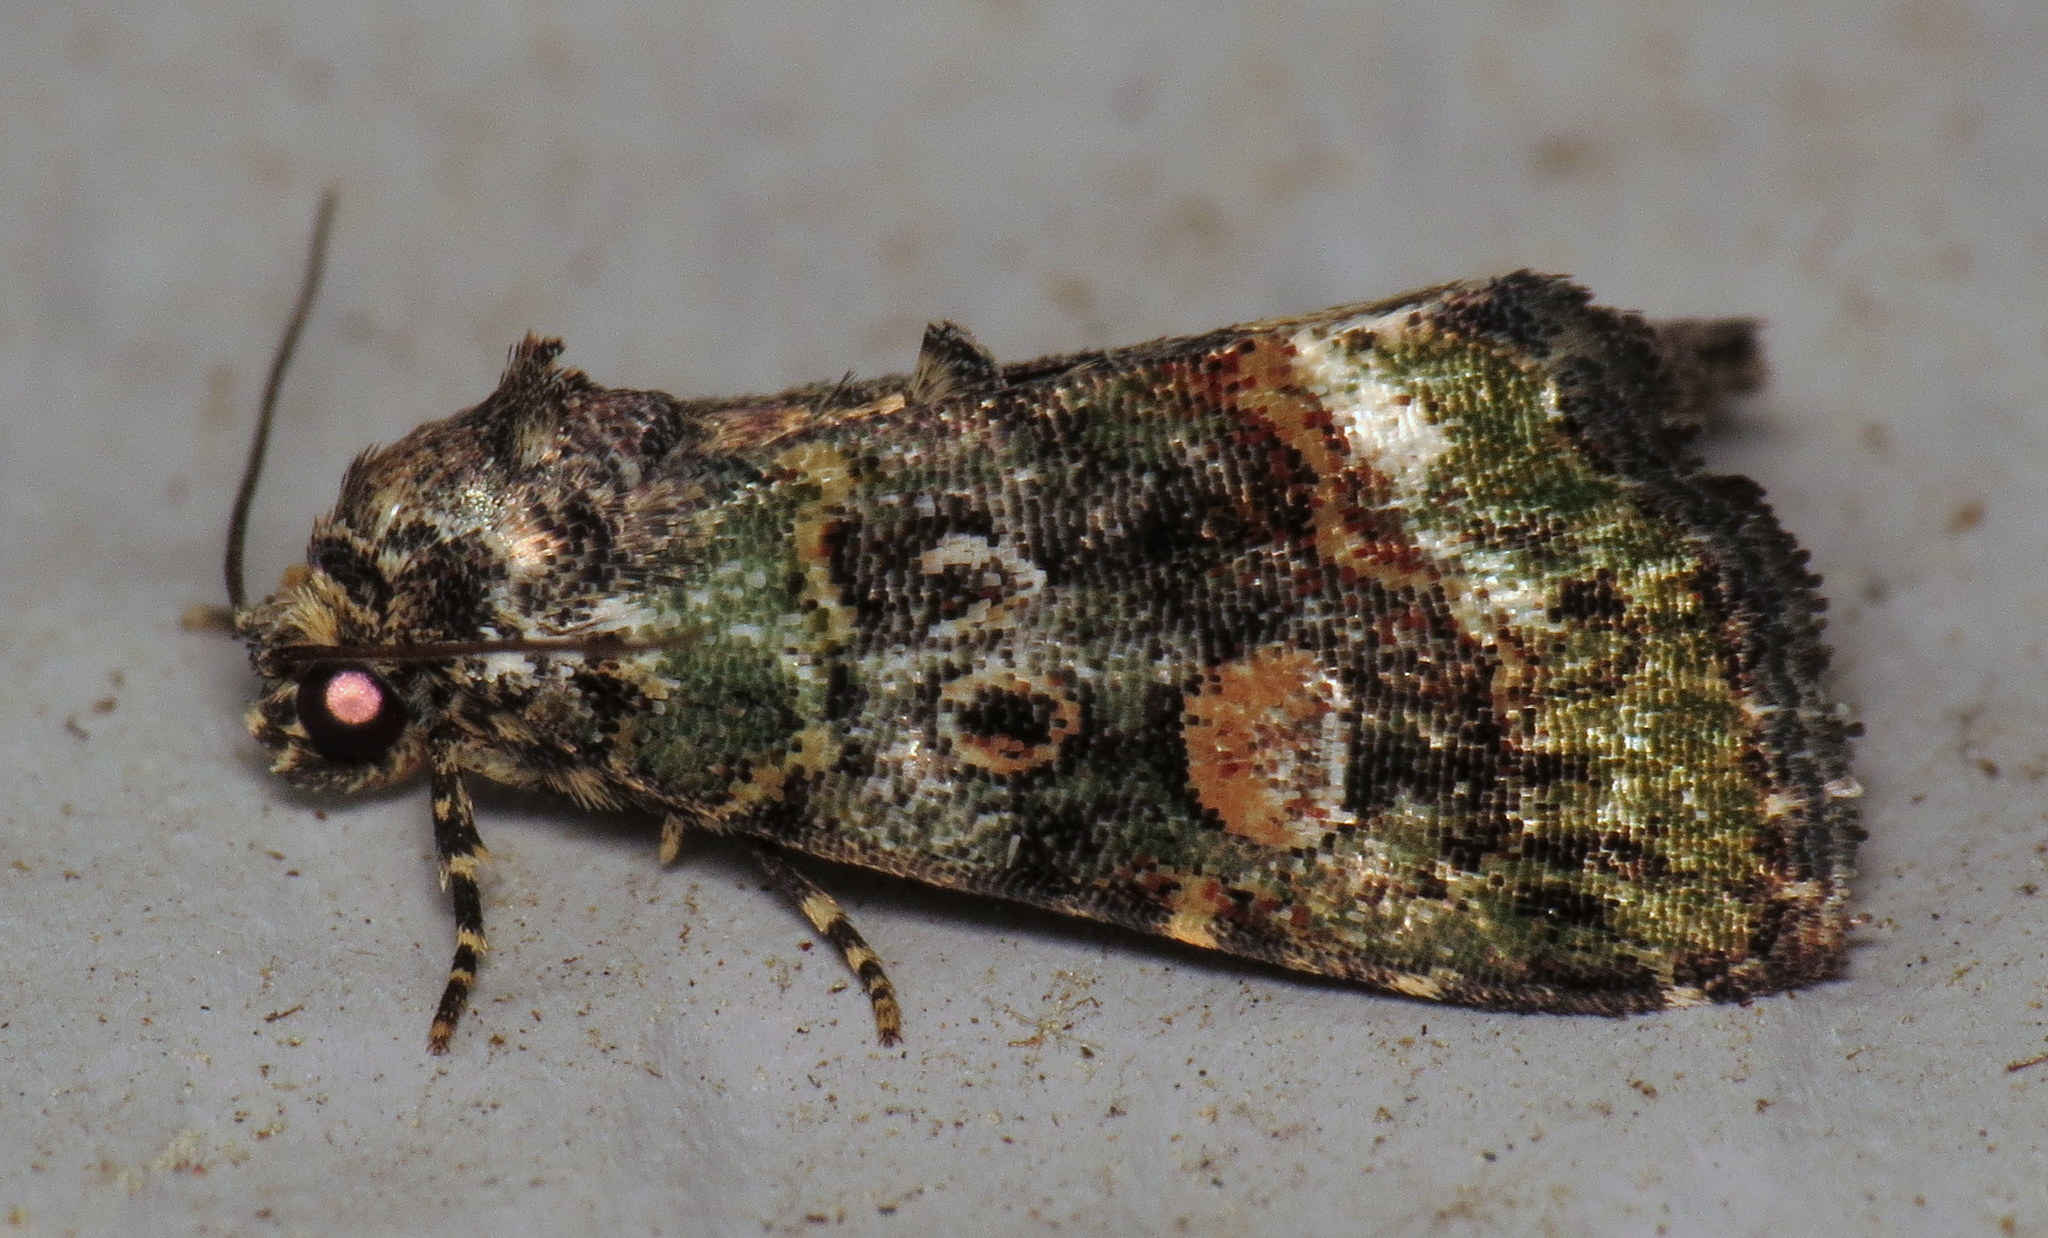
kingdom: Animalia
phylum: Arthropoda
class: Insecta
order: Lepidoptera
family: Noctuidae
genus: Lithacodia
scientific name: Lithacodia musta
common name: Small mossy glyph
